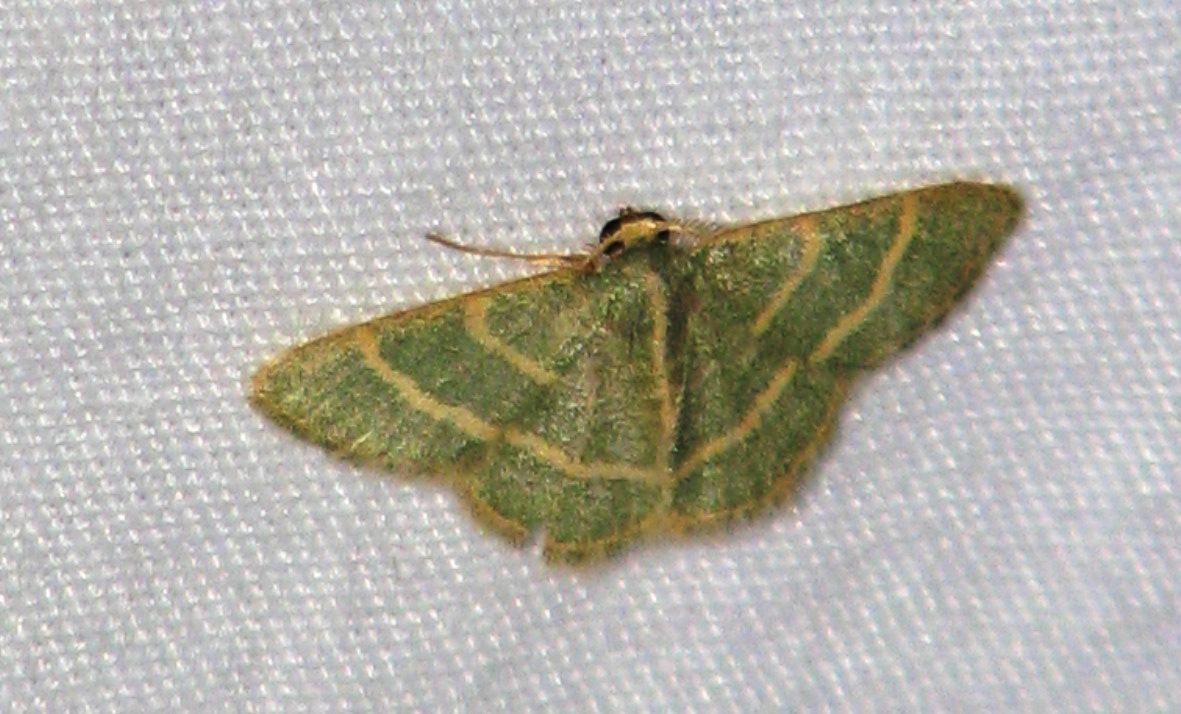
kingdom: Animalia
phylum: Arthropoda
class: Insecta
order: Lepidoptera
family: Geometridae
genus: Chlorochlamys
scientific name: Chlorochlamys chloroleucaria
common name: Blackberry looper
